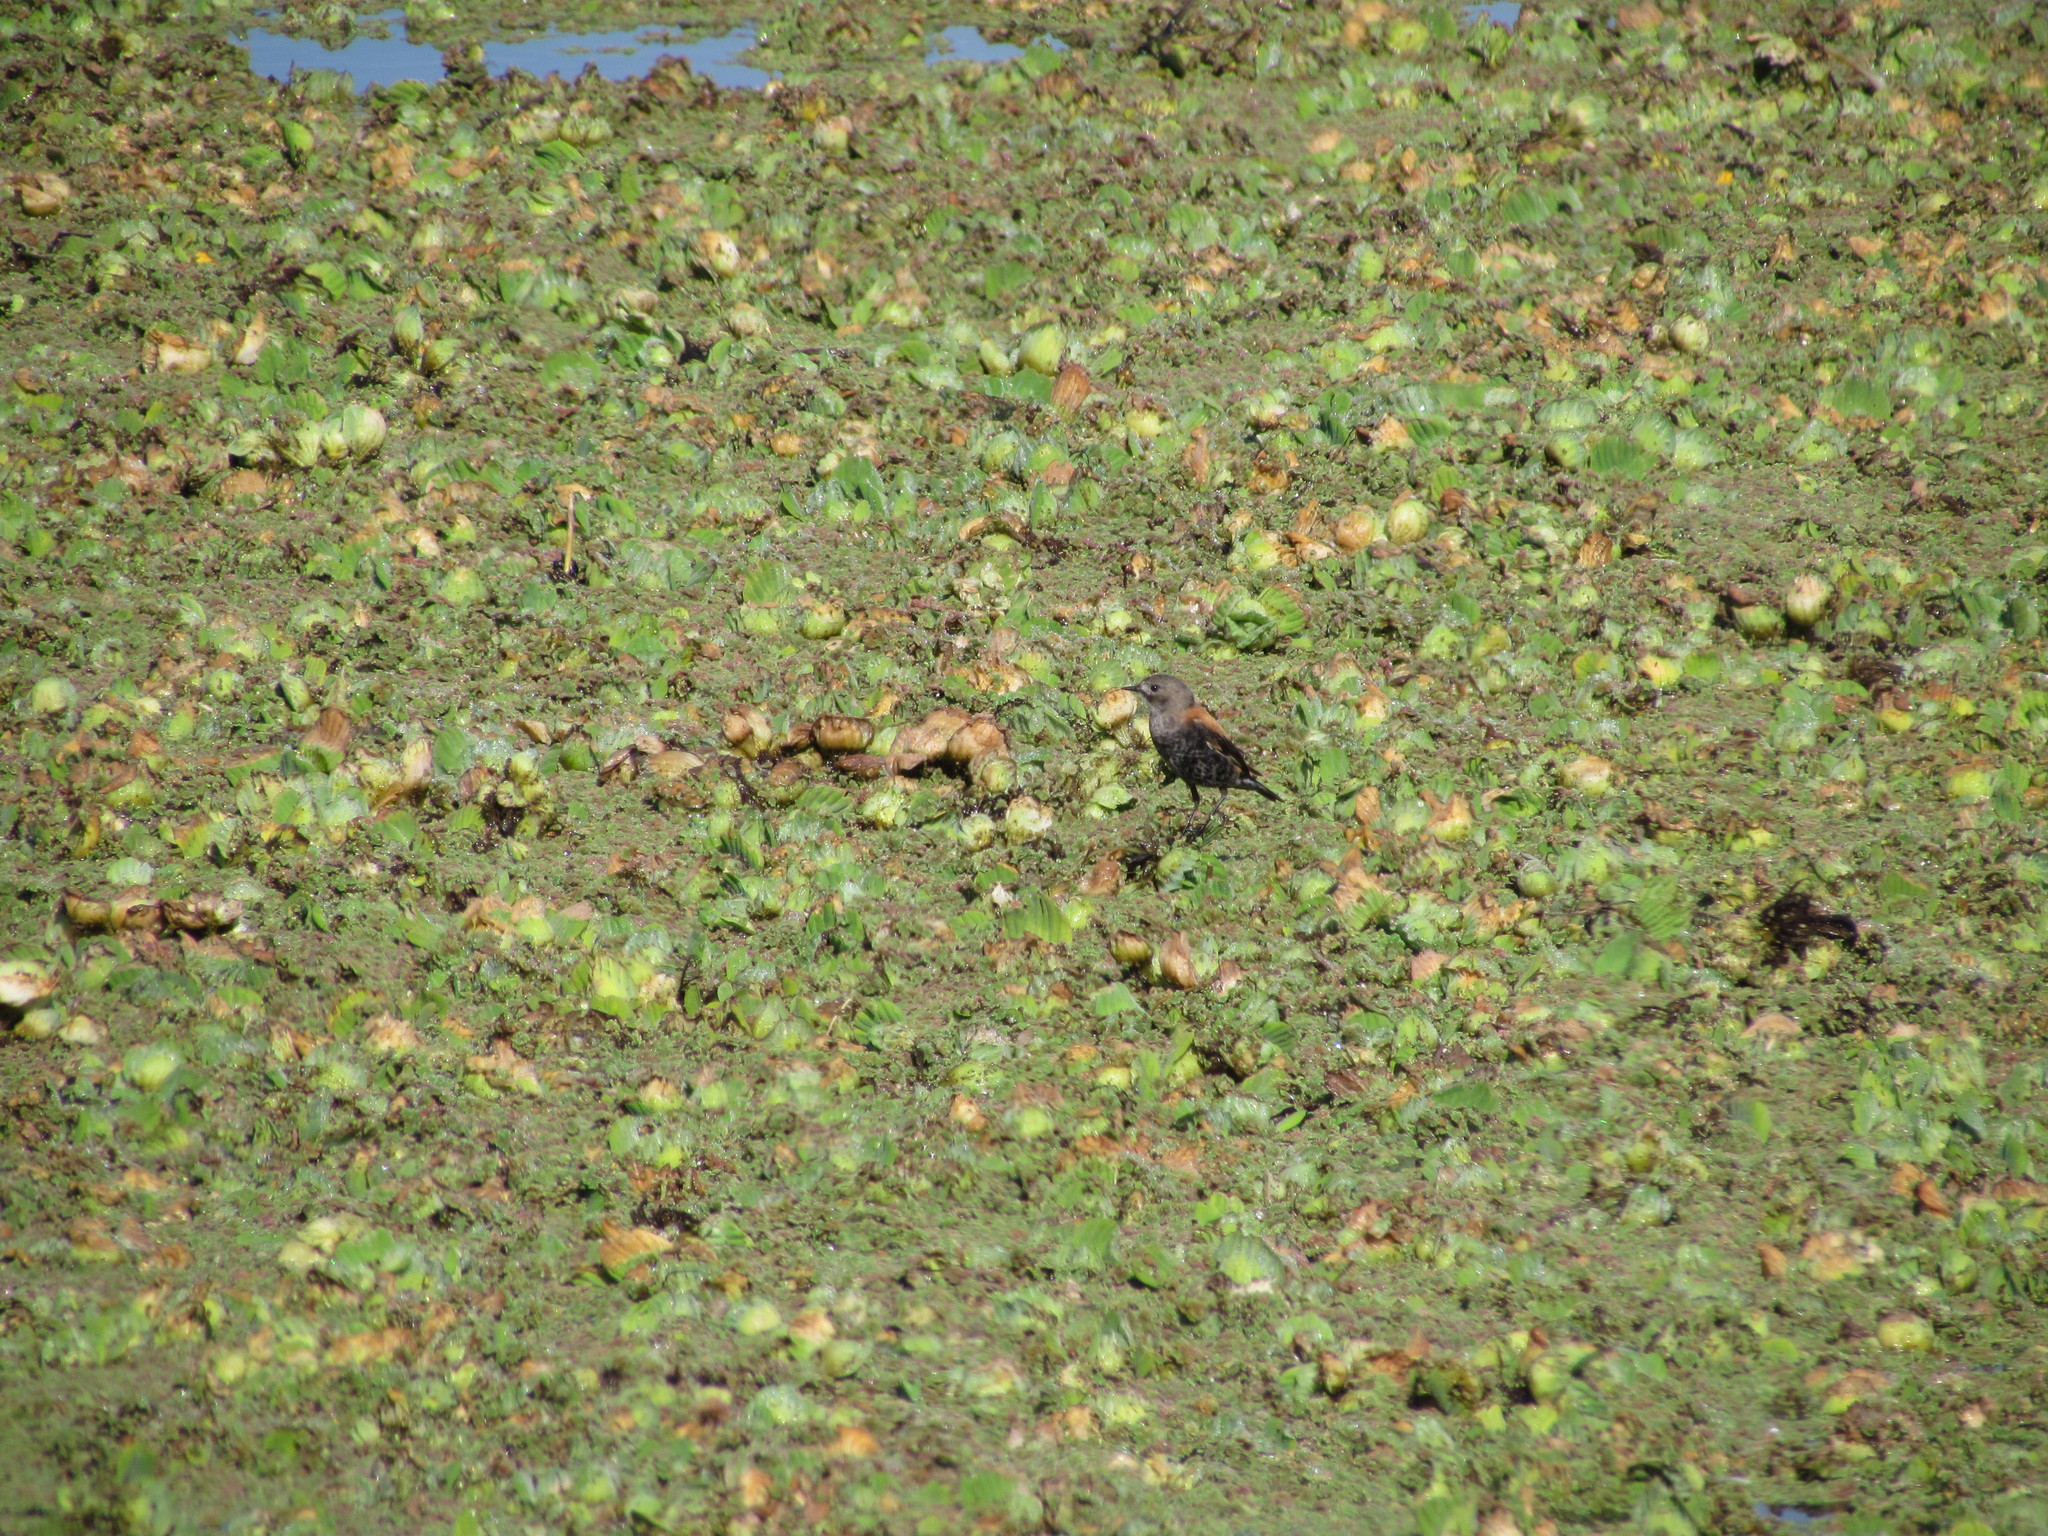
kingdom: Animalia
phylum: Chordata
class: Aves
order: Passeriformes
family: Tyrannidae
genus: Lessonia
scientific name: Lessonia rufa
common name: Austral negrito
